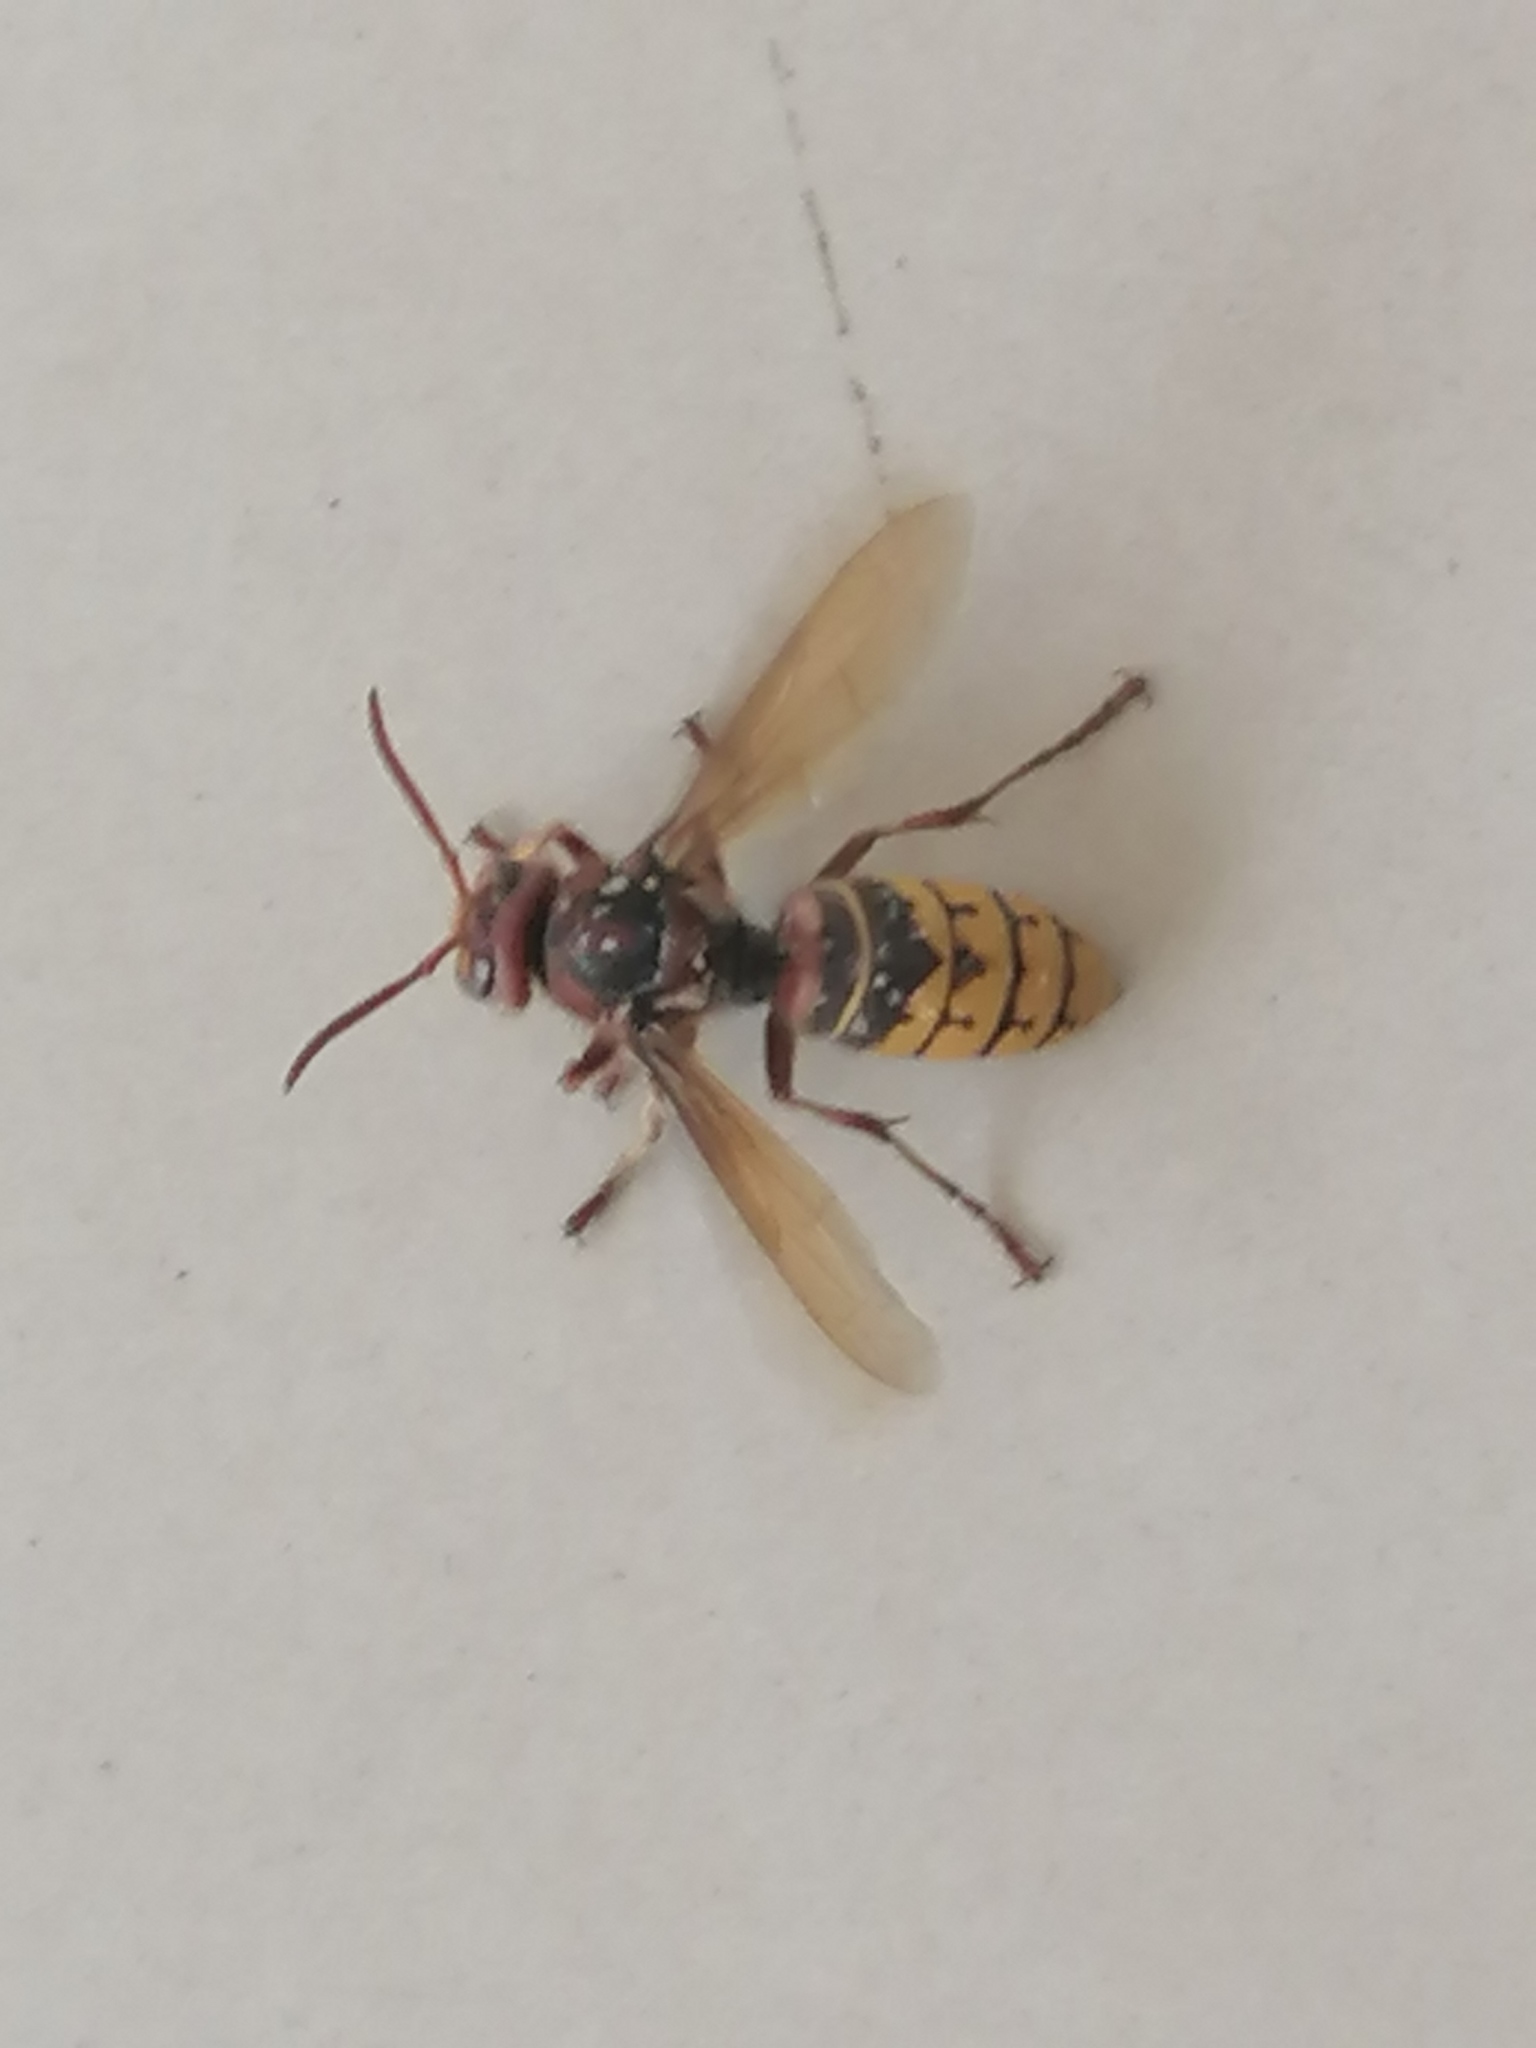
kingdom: Animalia
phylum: Arthropoda
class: Insecta
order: Hymenoptera
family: Vespidae
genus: Vespa
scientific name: Vespa crabro
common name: Hornet
